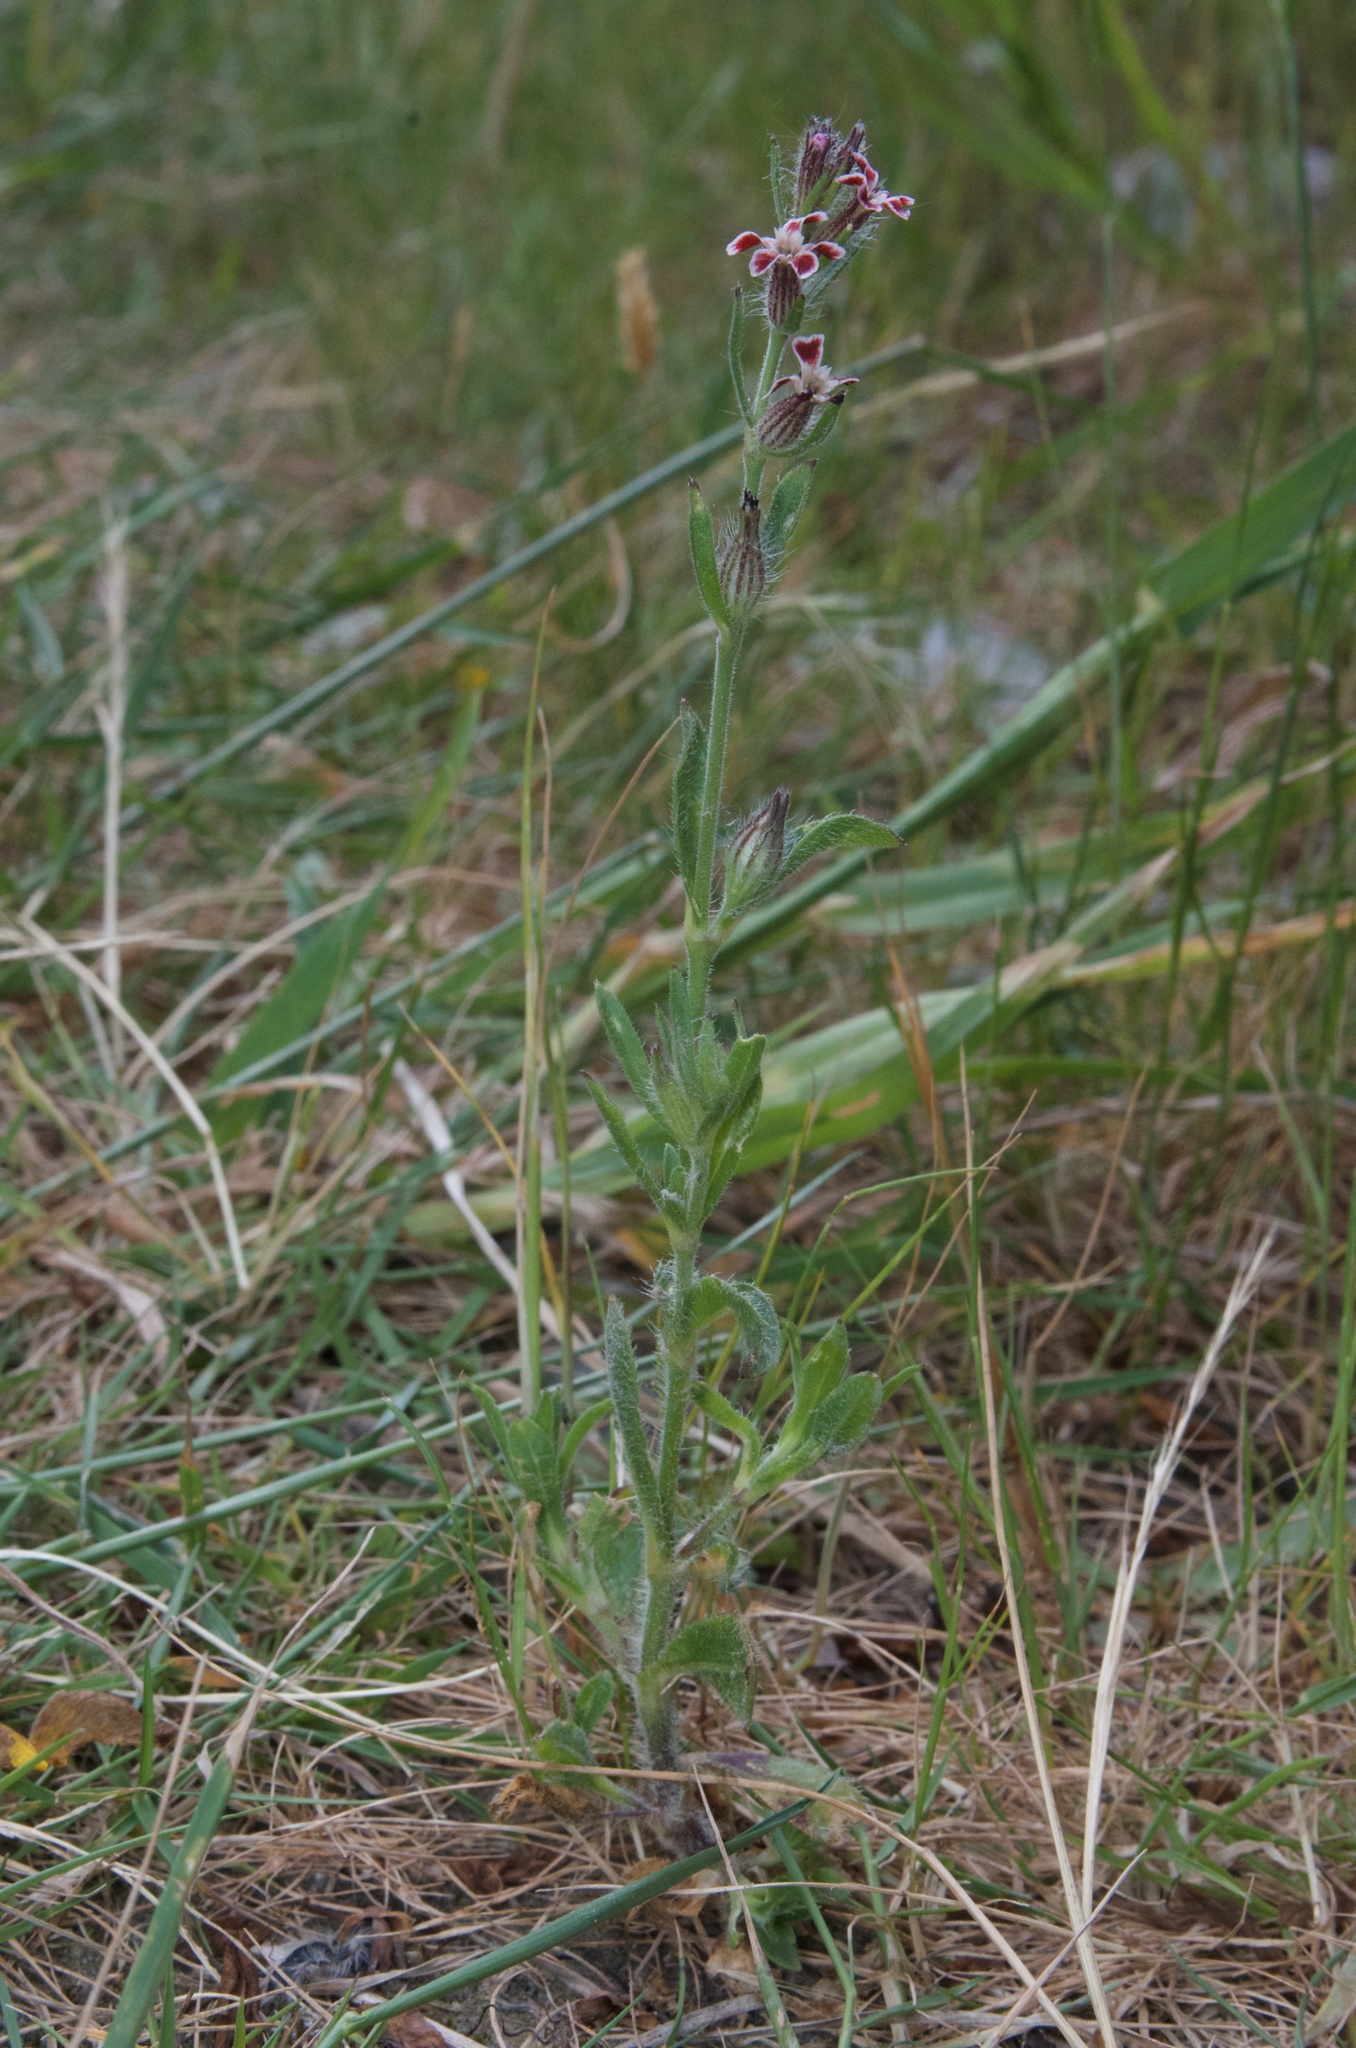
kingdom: Plantae
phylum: Tracheophyta
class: Magnoliopsida
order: Caryophyllales
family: Caryophyllaceae
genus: Silene
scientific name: Silene gallica
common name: Small-flowered catchfly
